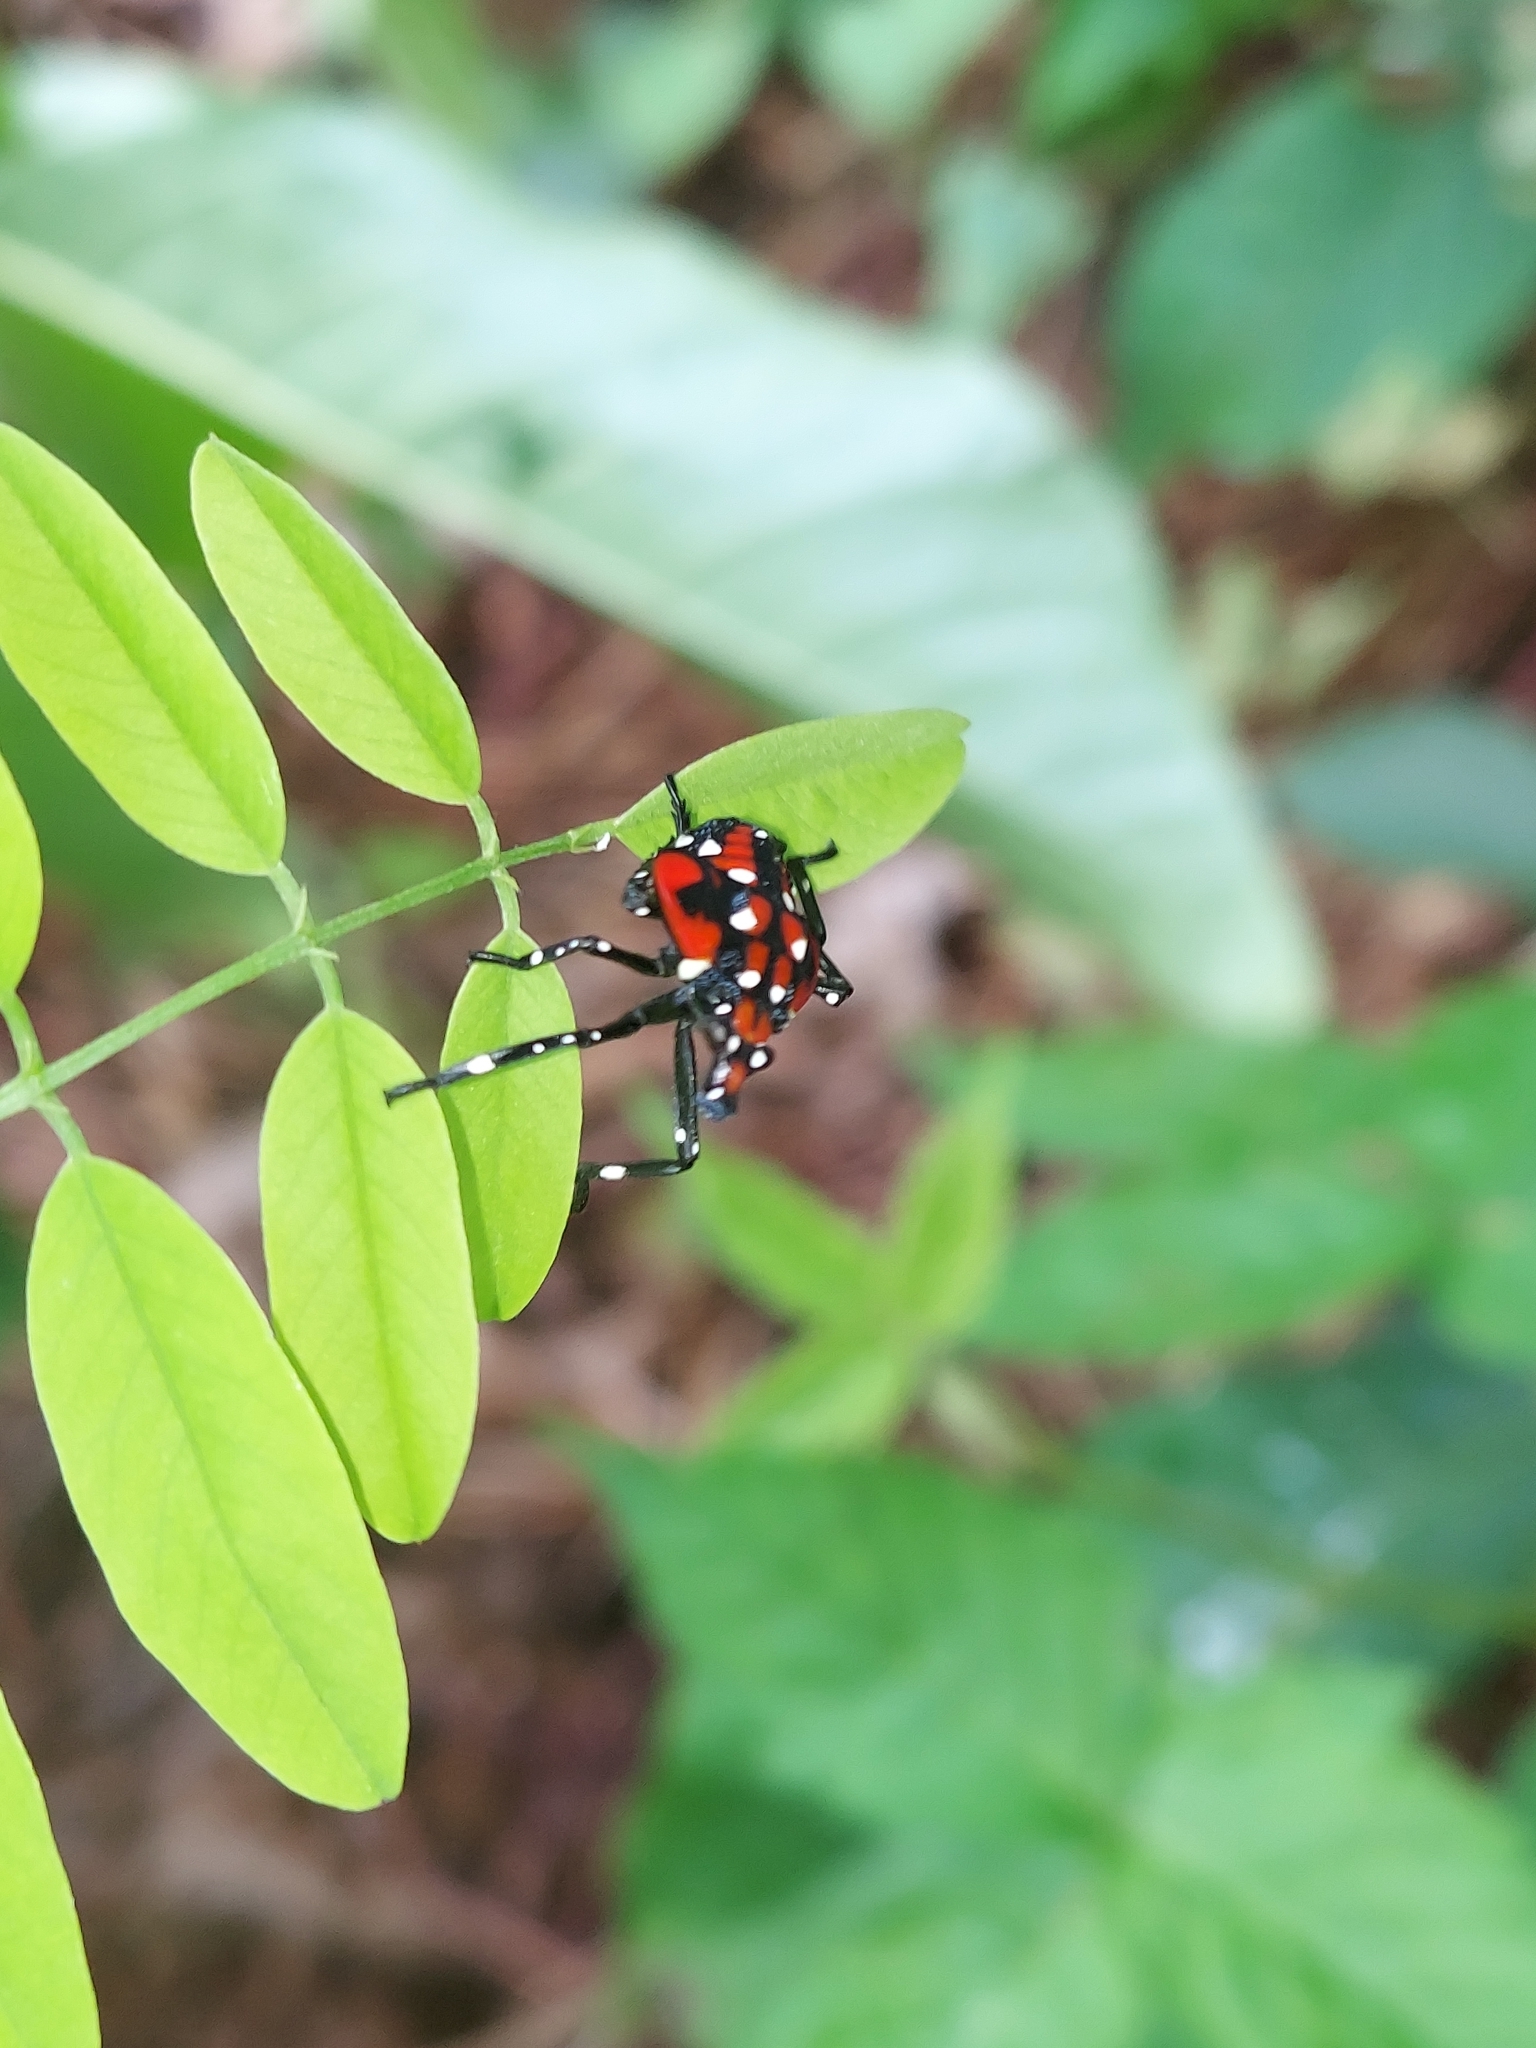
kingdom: Animalia
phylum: Arthropoda
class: Insecta
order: Hemiptera
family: Fulgoridae
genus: Lycorma
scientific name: Lycorma delicatula
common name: Spotted lanternfly
